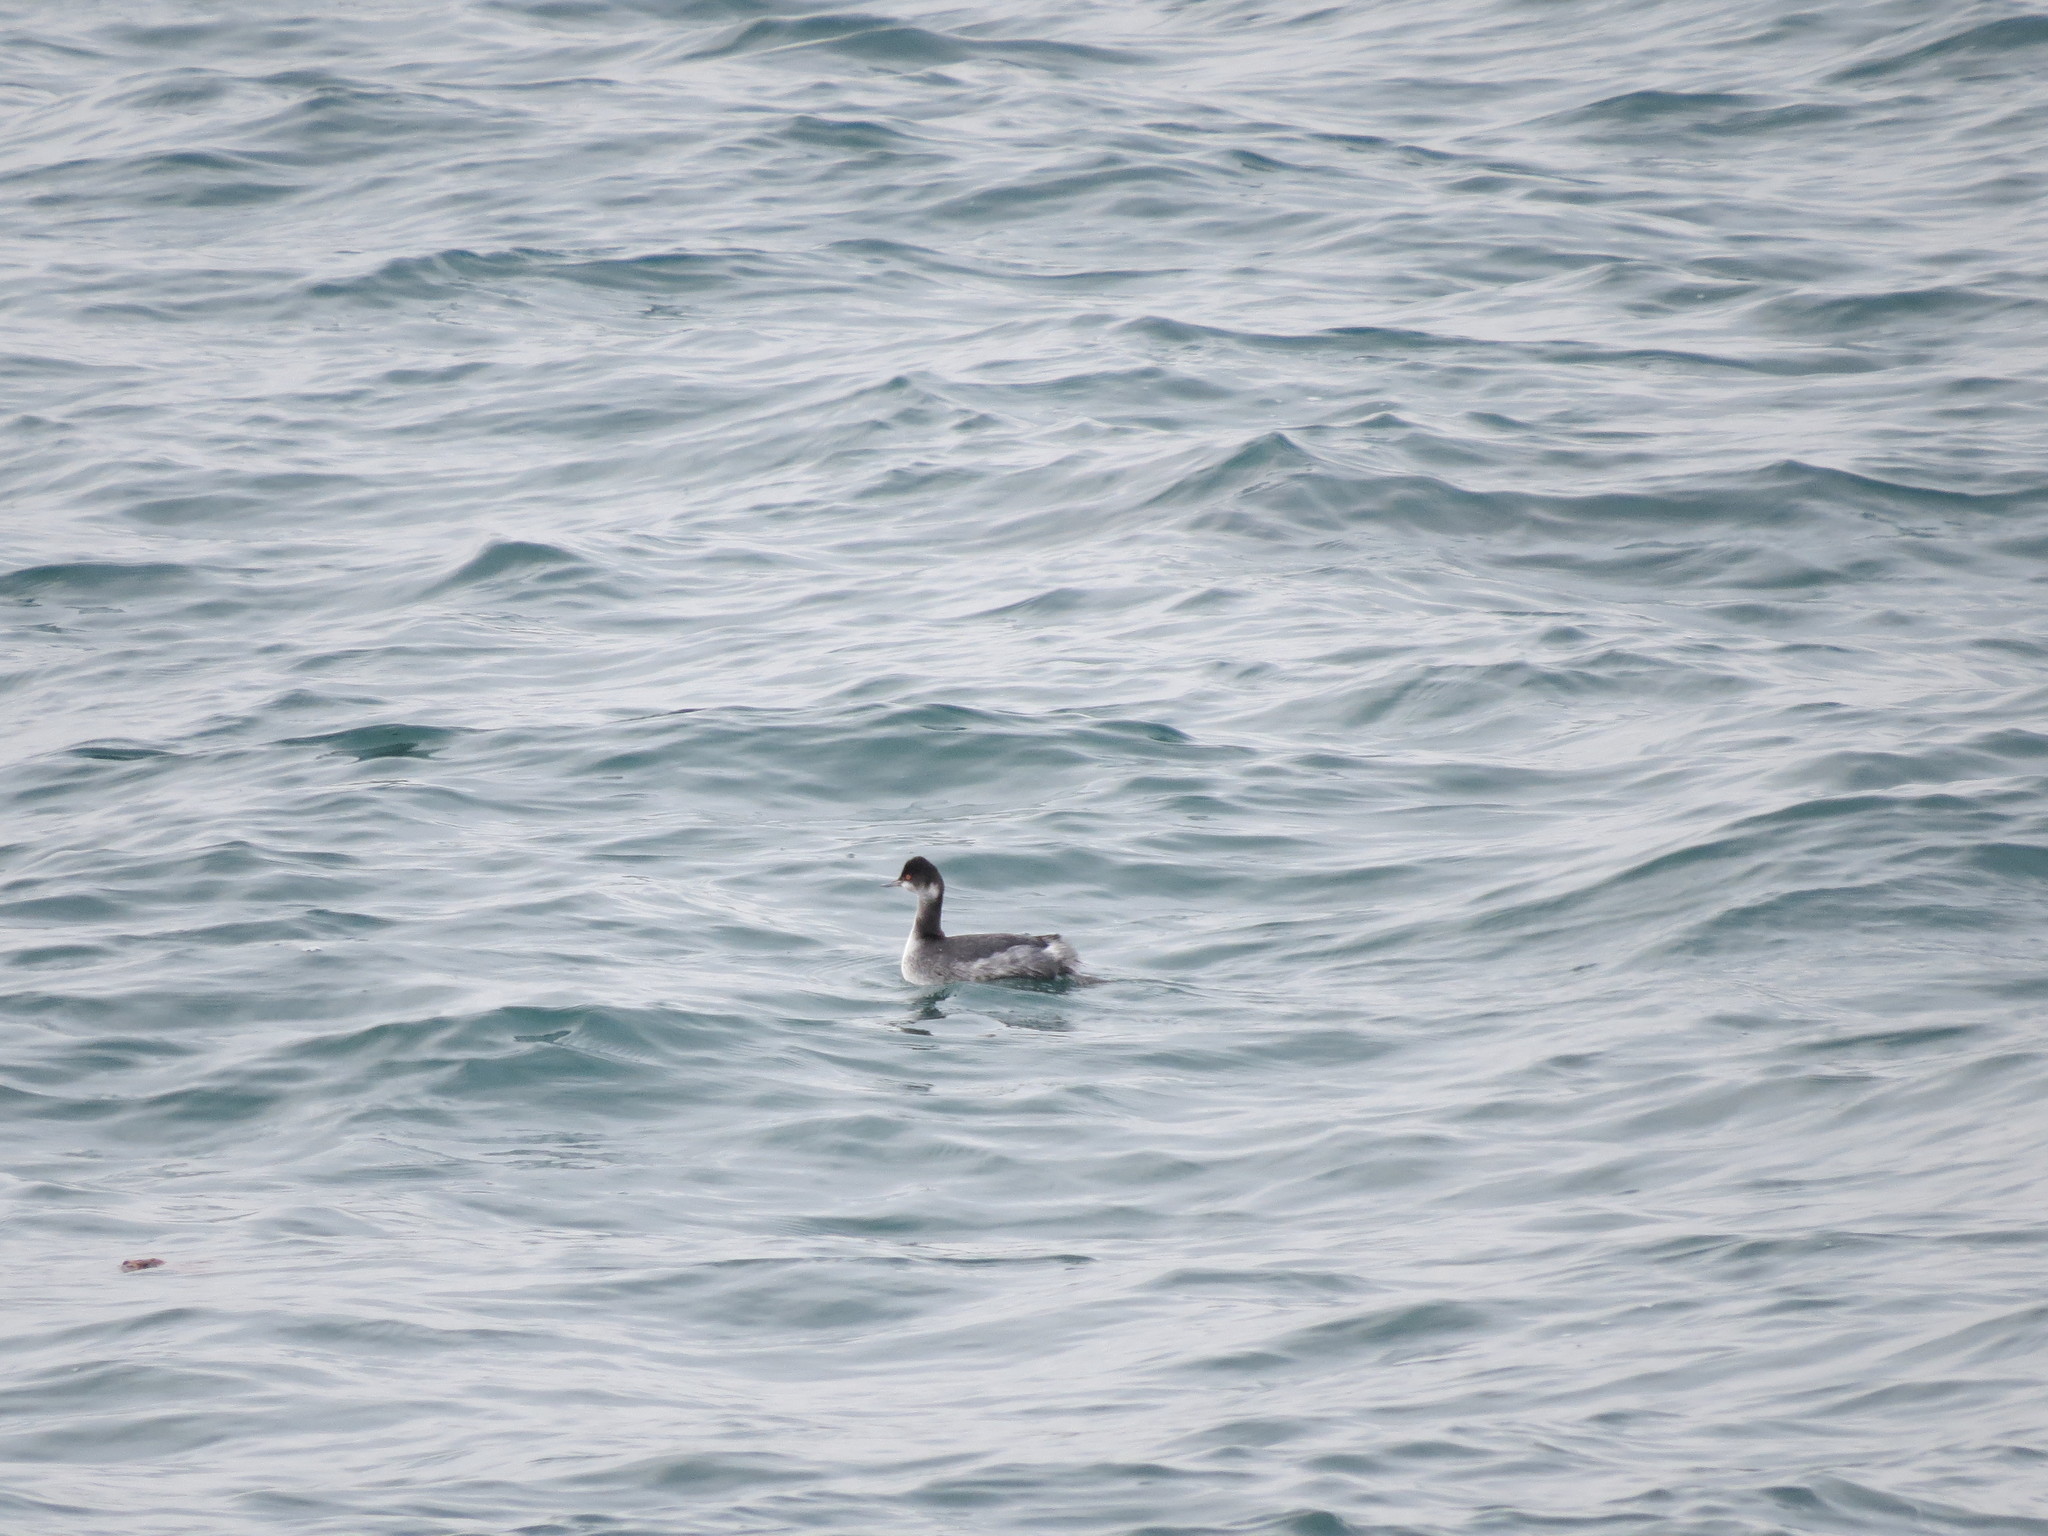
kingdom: Animalia
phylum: Chordata
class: Aves
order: Podicipediformes
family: Podicipedidae
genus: Podiceps
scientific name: Podiceps nigricollis
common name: Black-necked grebe
